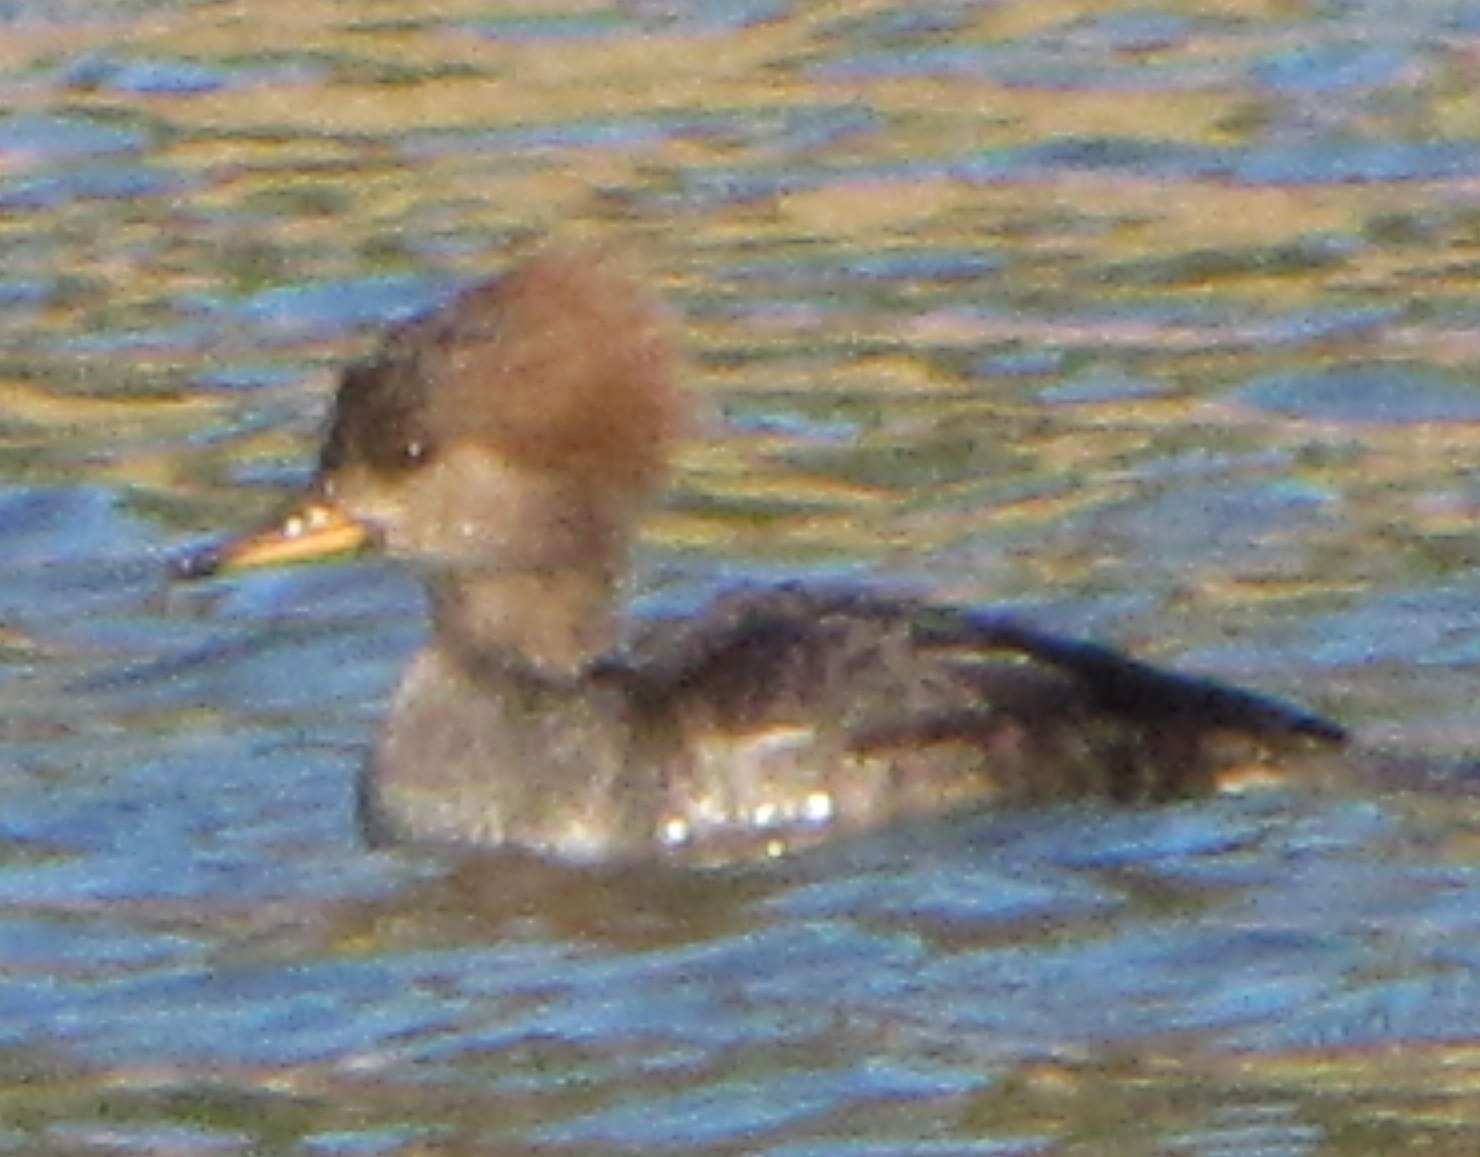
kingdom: Animalia
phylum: Chordata
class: Aves
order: Anseriformes
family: Anatidae
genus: Lophodytes
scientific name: Lophodytes cucullatus
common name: Hooded merganser
